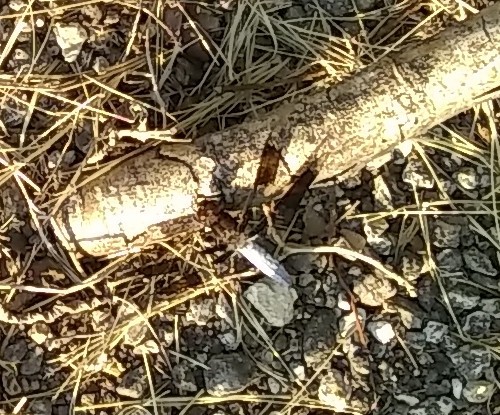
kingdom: Animalia
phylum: Arthropoda
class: Insecta
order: Odonata
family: Libellulidae
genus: Plathemis
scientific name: Plathemis lydia
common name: Common whitetail
